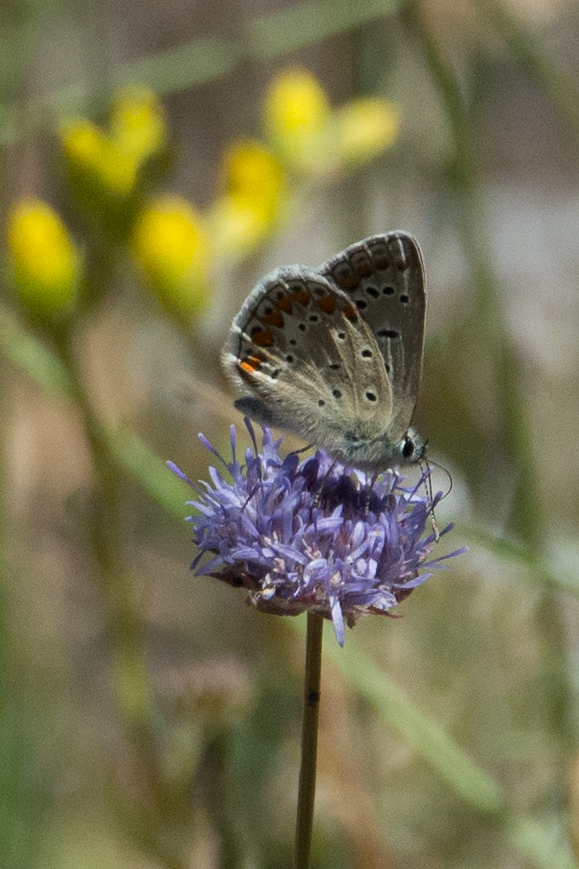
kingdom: Animalia
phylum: Arthropoda
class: Insecta
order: Lepidoptera
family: Lycaenidae
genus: Polyommatus
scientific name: Polyommatus celina
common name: Austaut's blue
